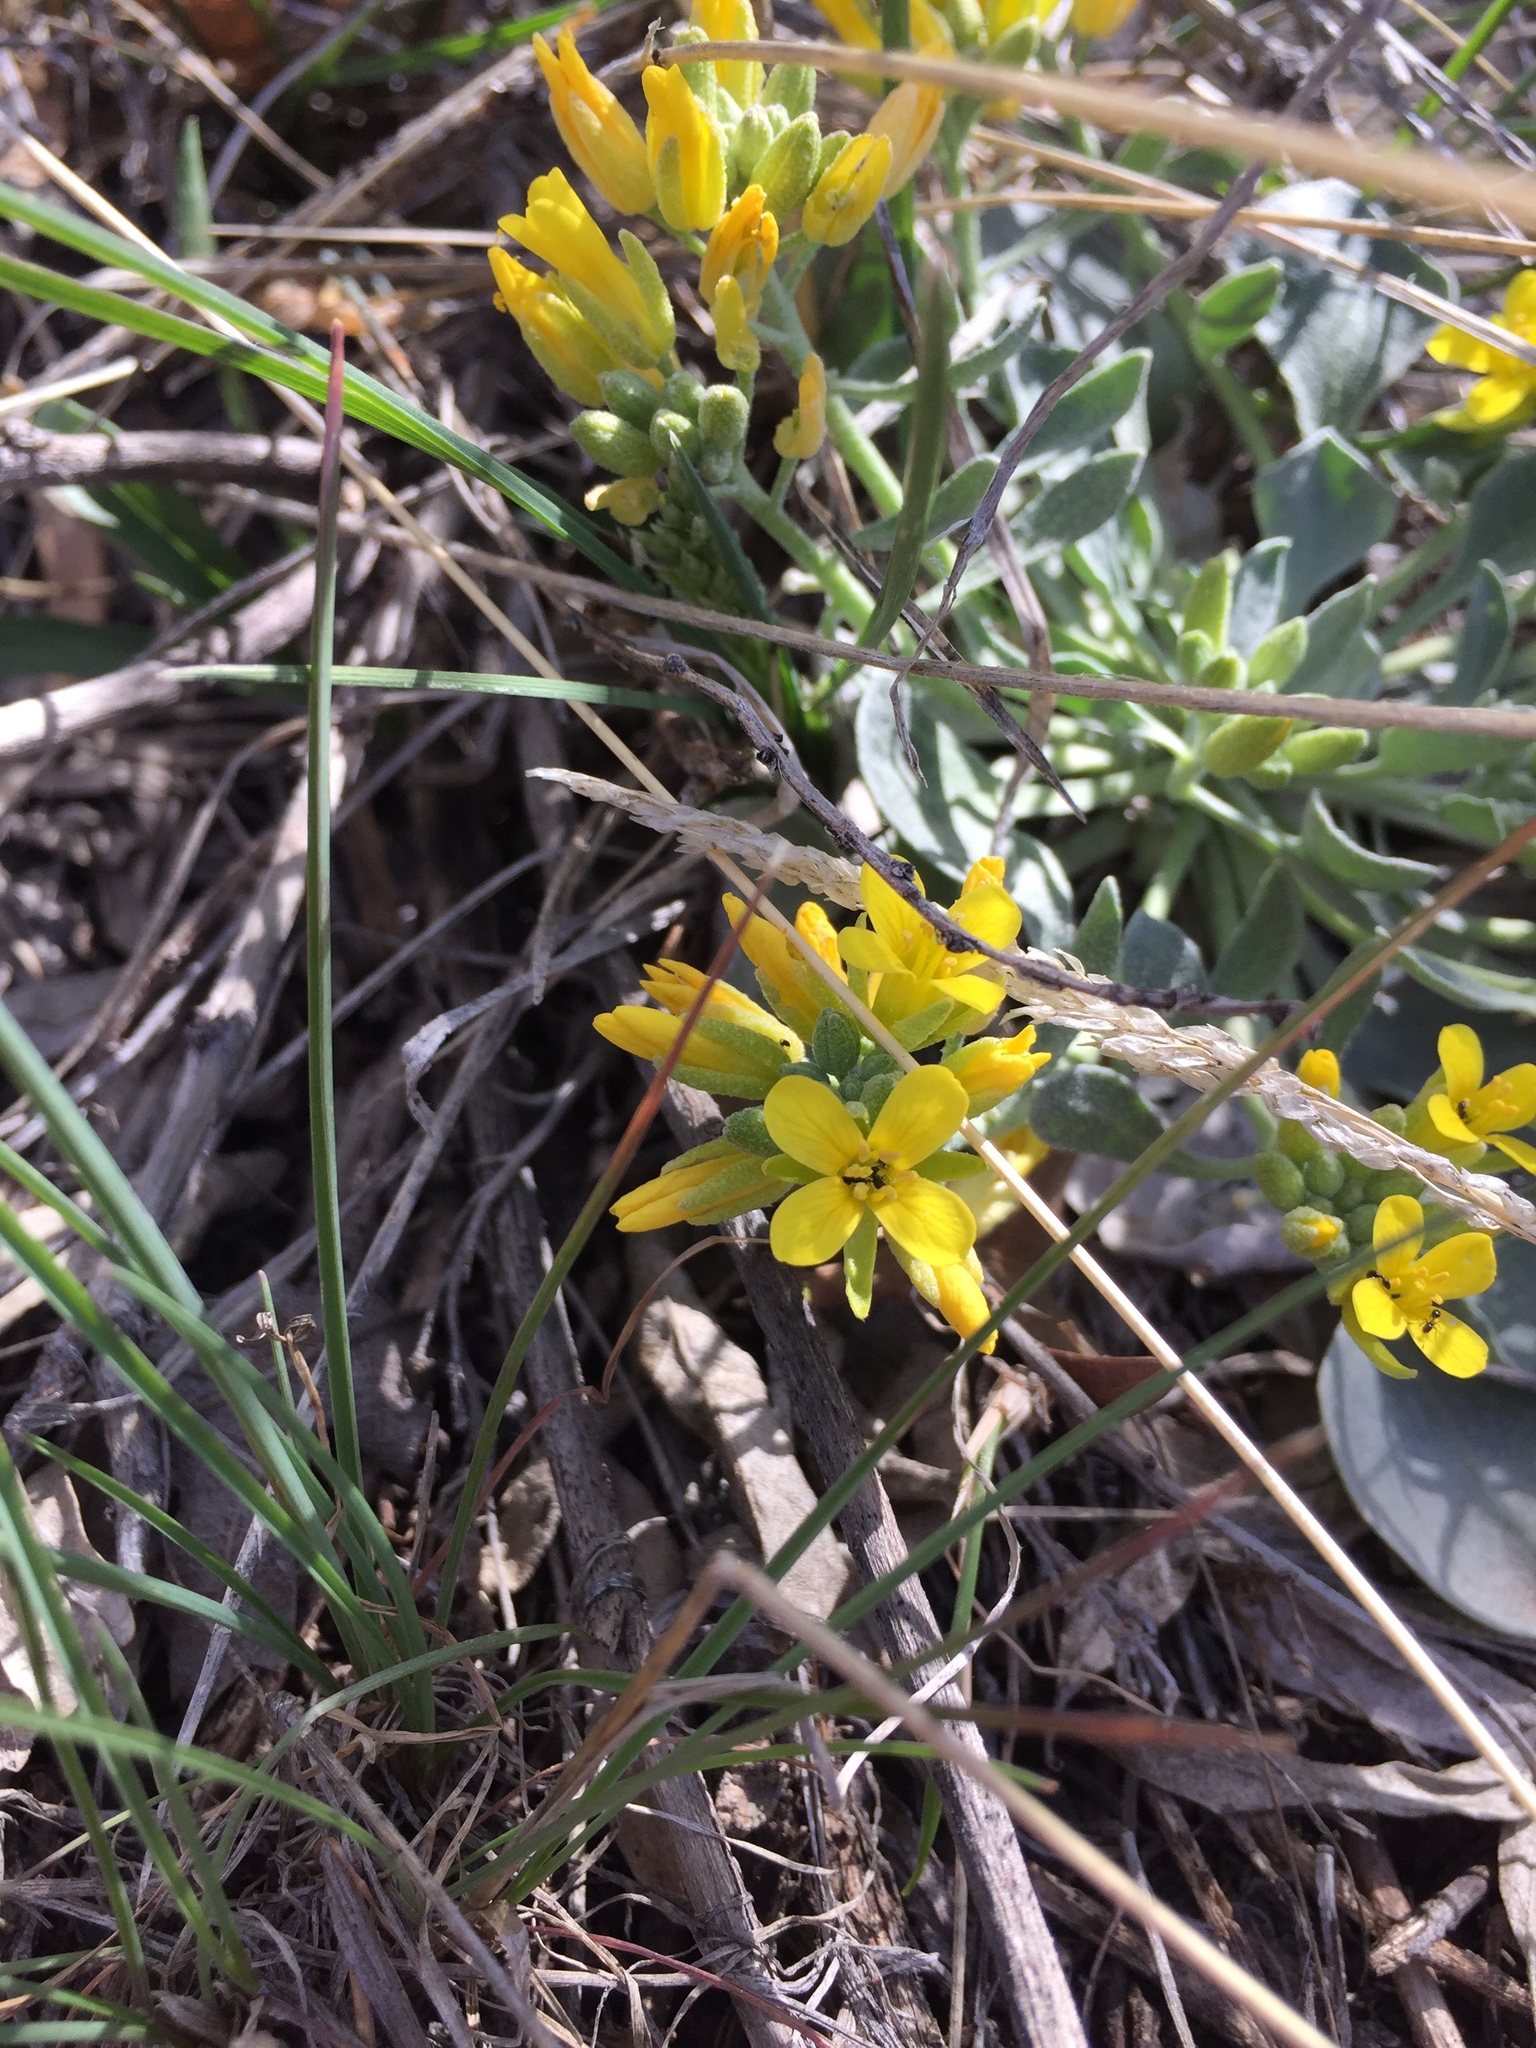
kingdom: Plantae
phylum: Tracheophyta
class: Magnoliopsida
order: Brassicales
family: Brassicaceae
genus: Physaria
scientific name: Physaria chambersii
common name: Chamber's twinpod
